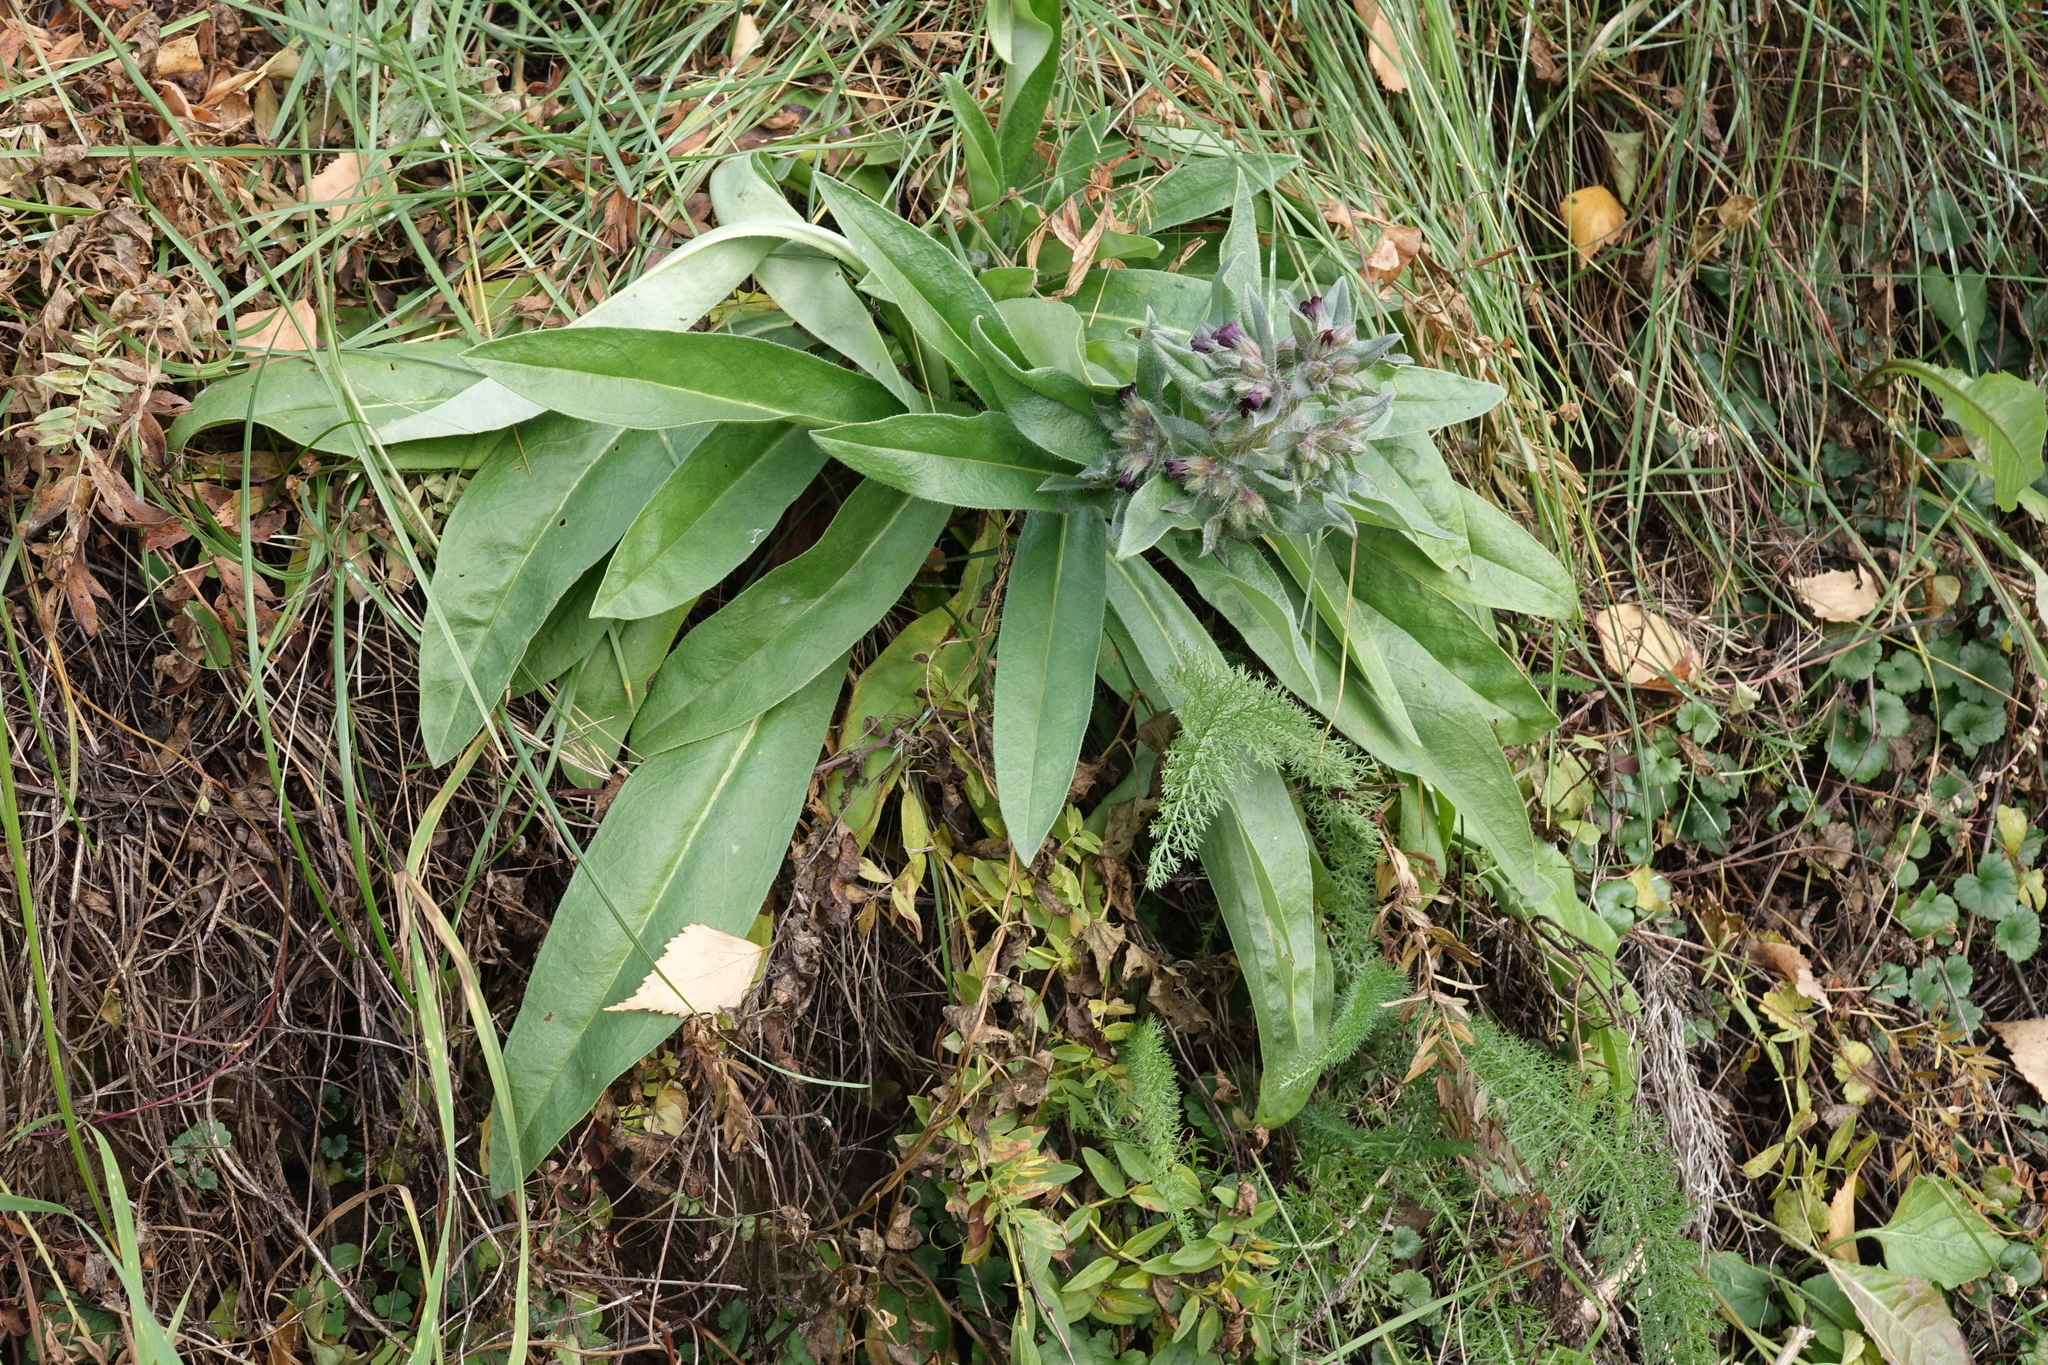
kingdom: Plantae
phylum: Tracheophyta
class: Magnoliopsida
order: Boraginales
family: Boraginaceae
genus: Nonea
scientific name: Nonea pulla
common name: Brown nonea
